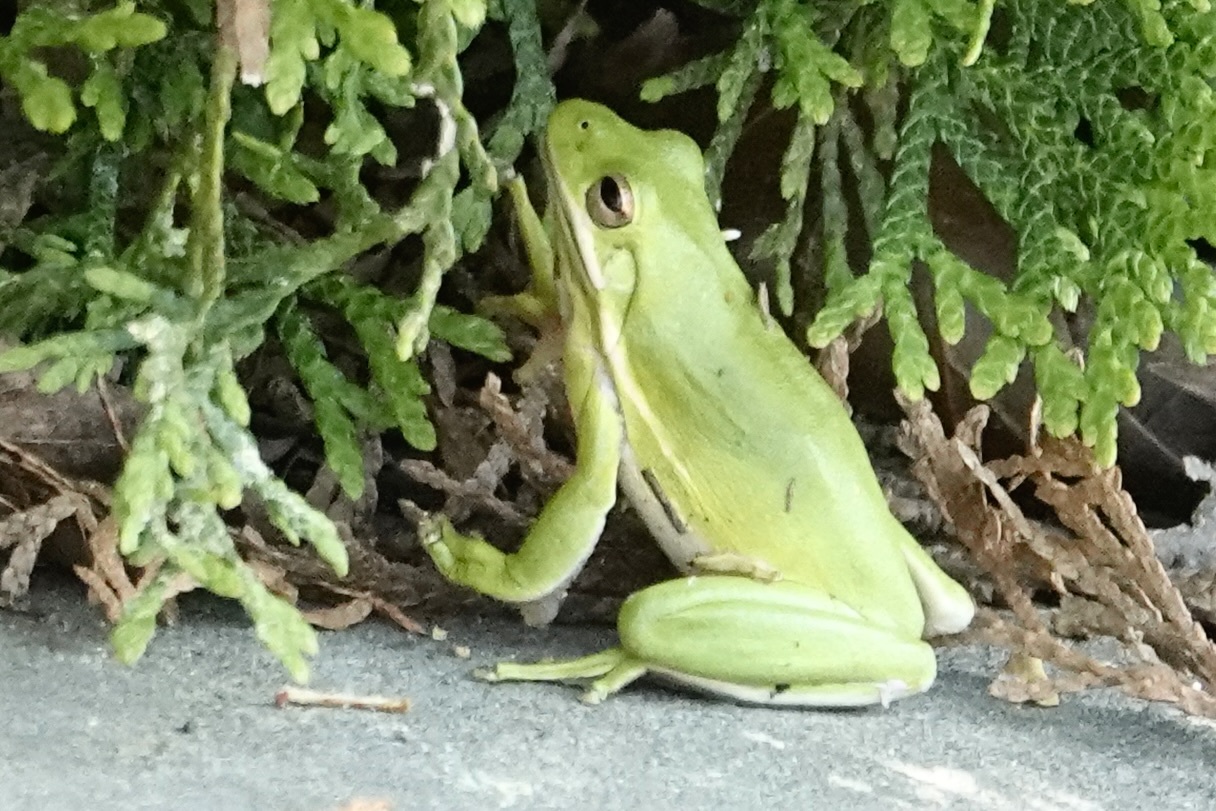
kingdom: Animalia
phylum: Chordata
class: Amphibia
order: Anura
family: Hylidae
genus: Dryophytes
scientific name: Dryophytes cinereus
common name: Green treefrog
